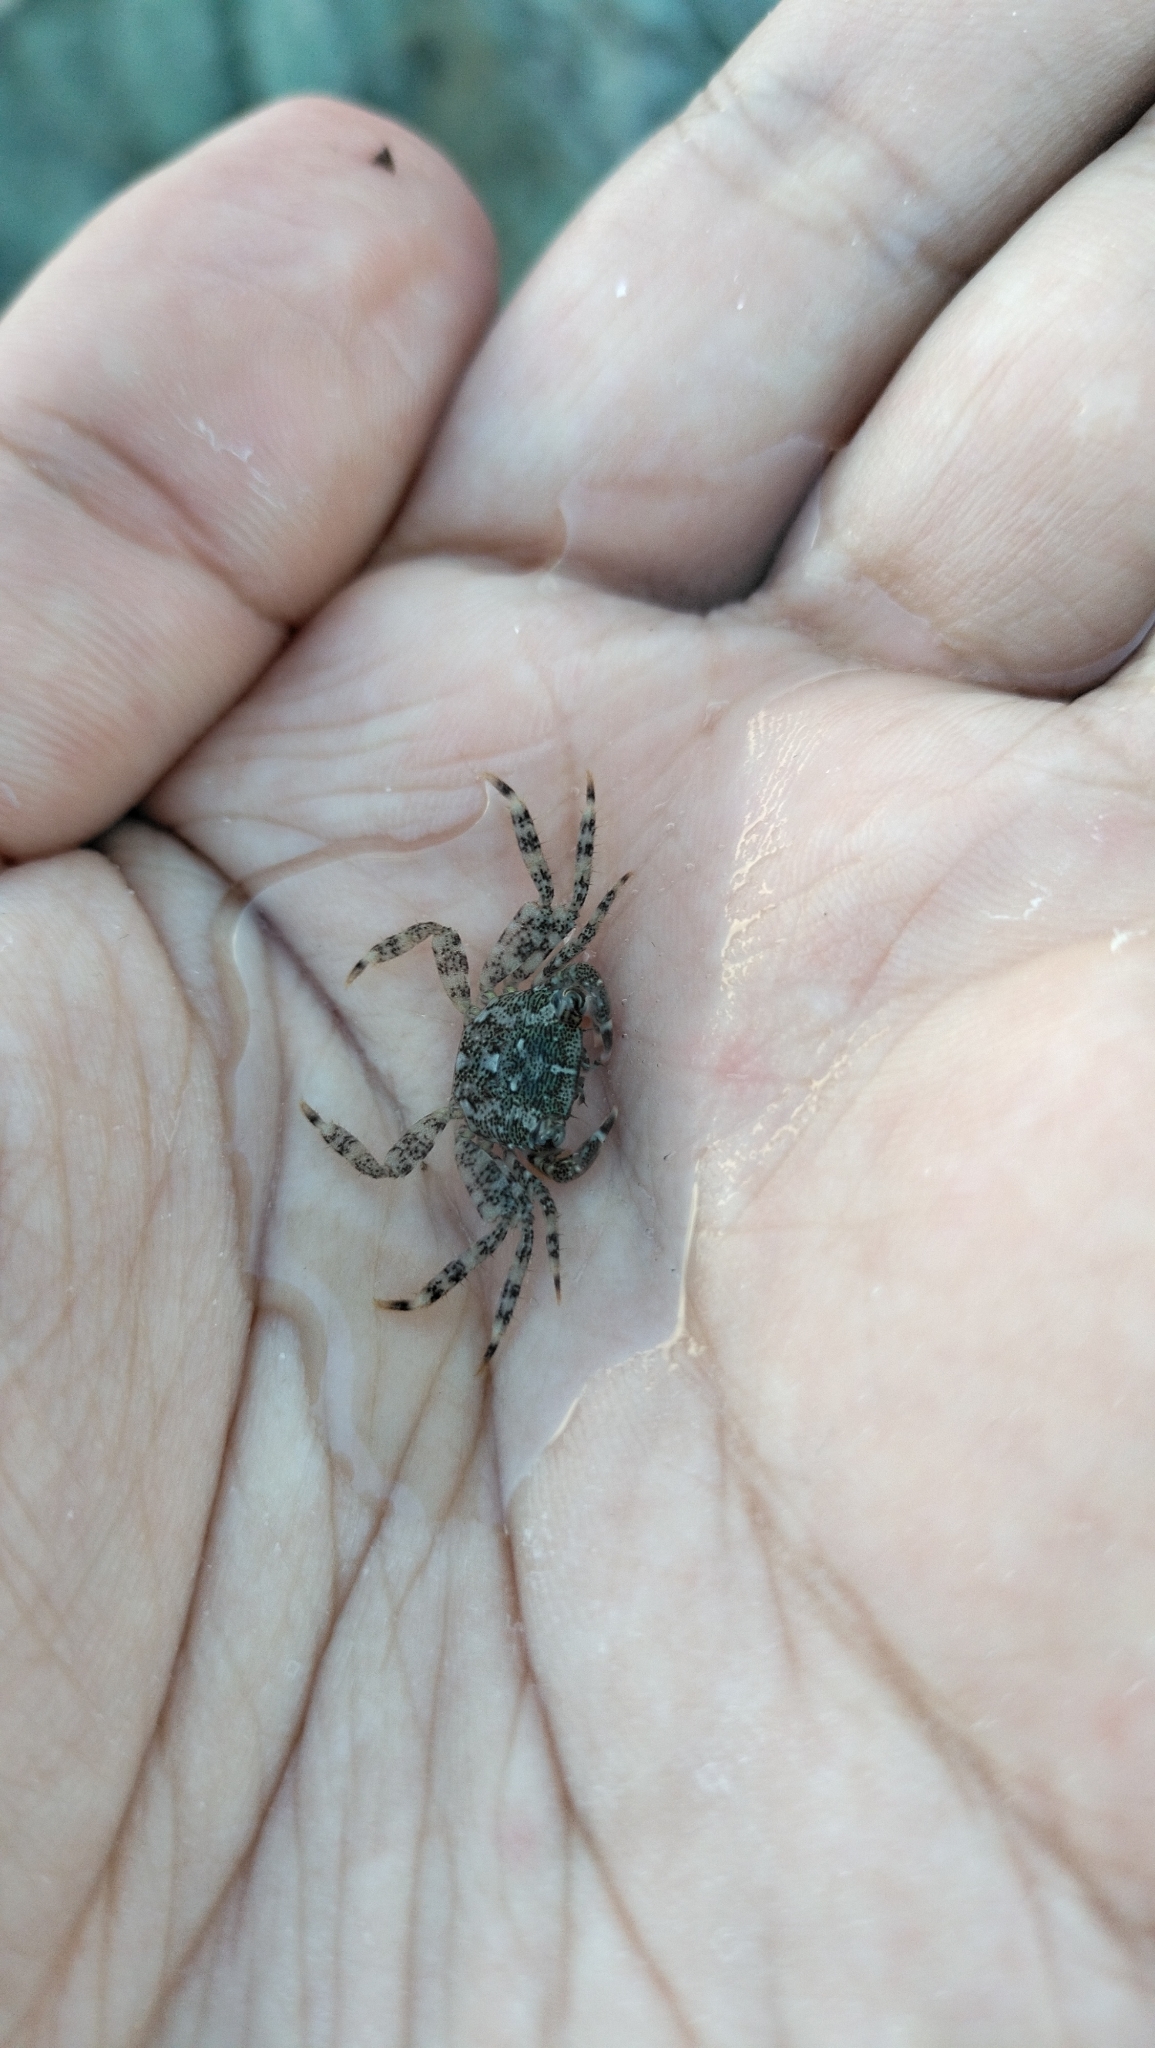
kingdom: Animalia
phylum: Arthropoda
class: Malacostraca
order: Decapoda
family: Grapsidae
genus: Pachygrapsus
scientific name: Pachygrapsus marmoratus
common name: Marbled rock crab
